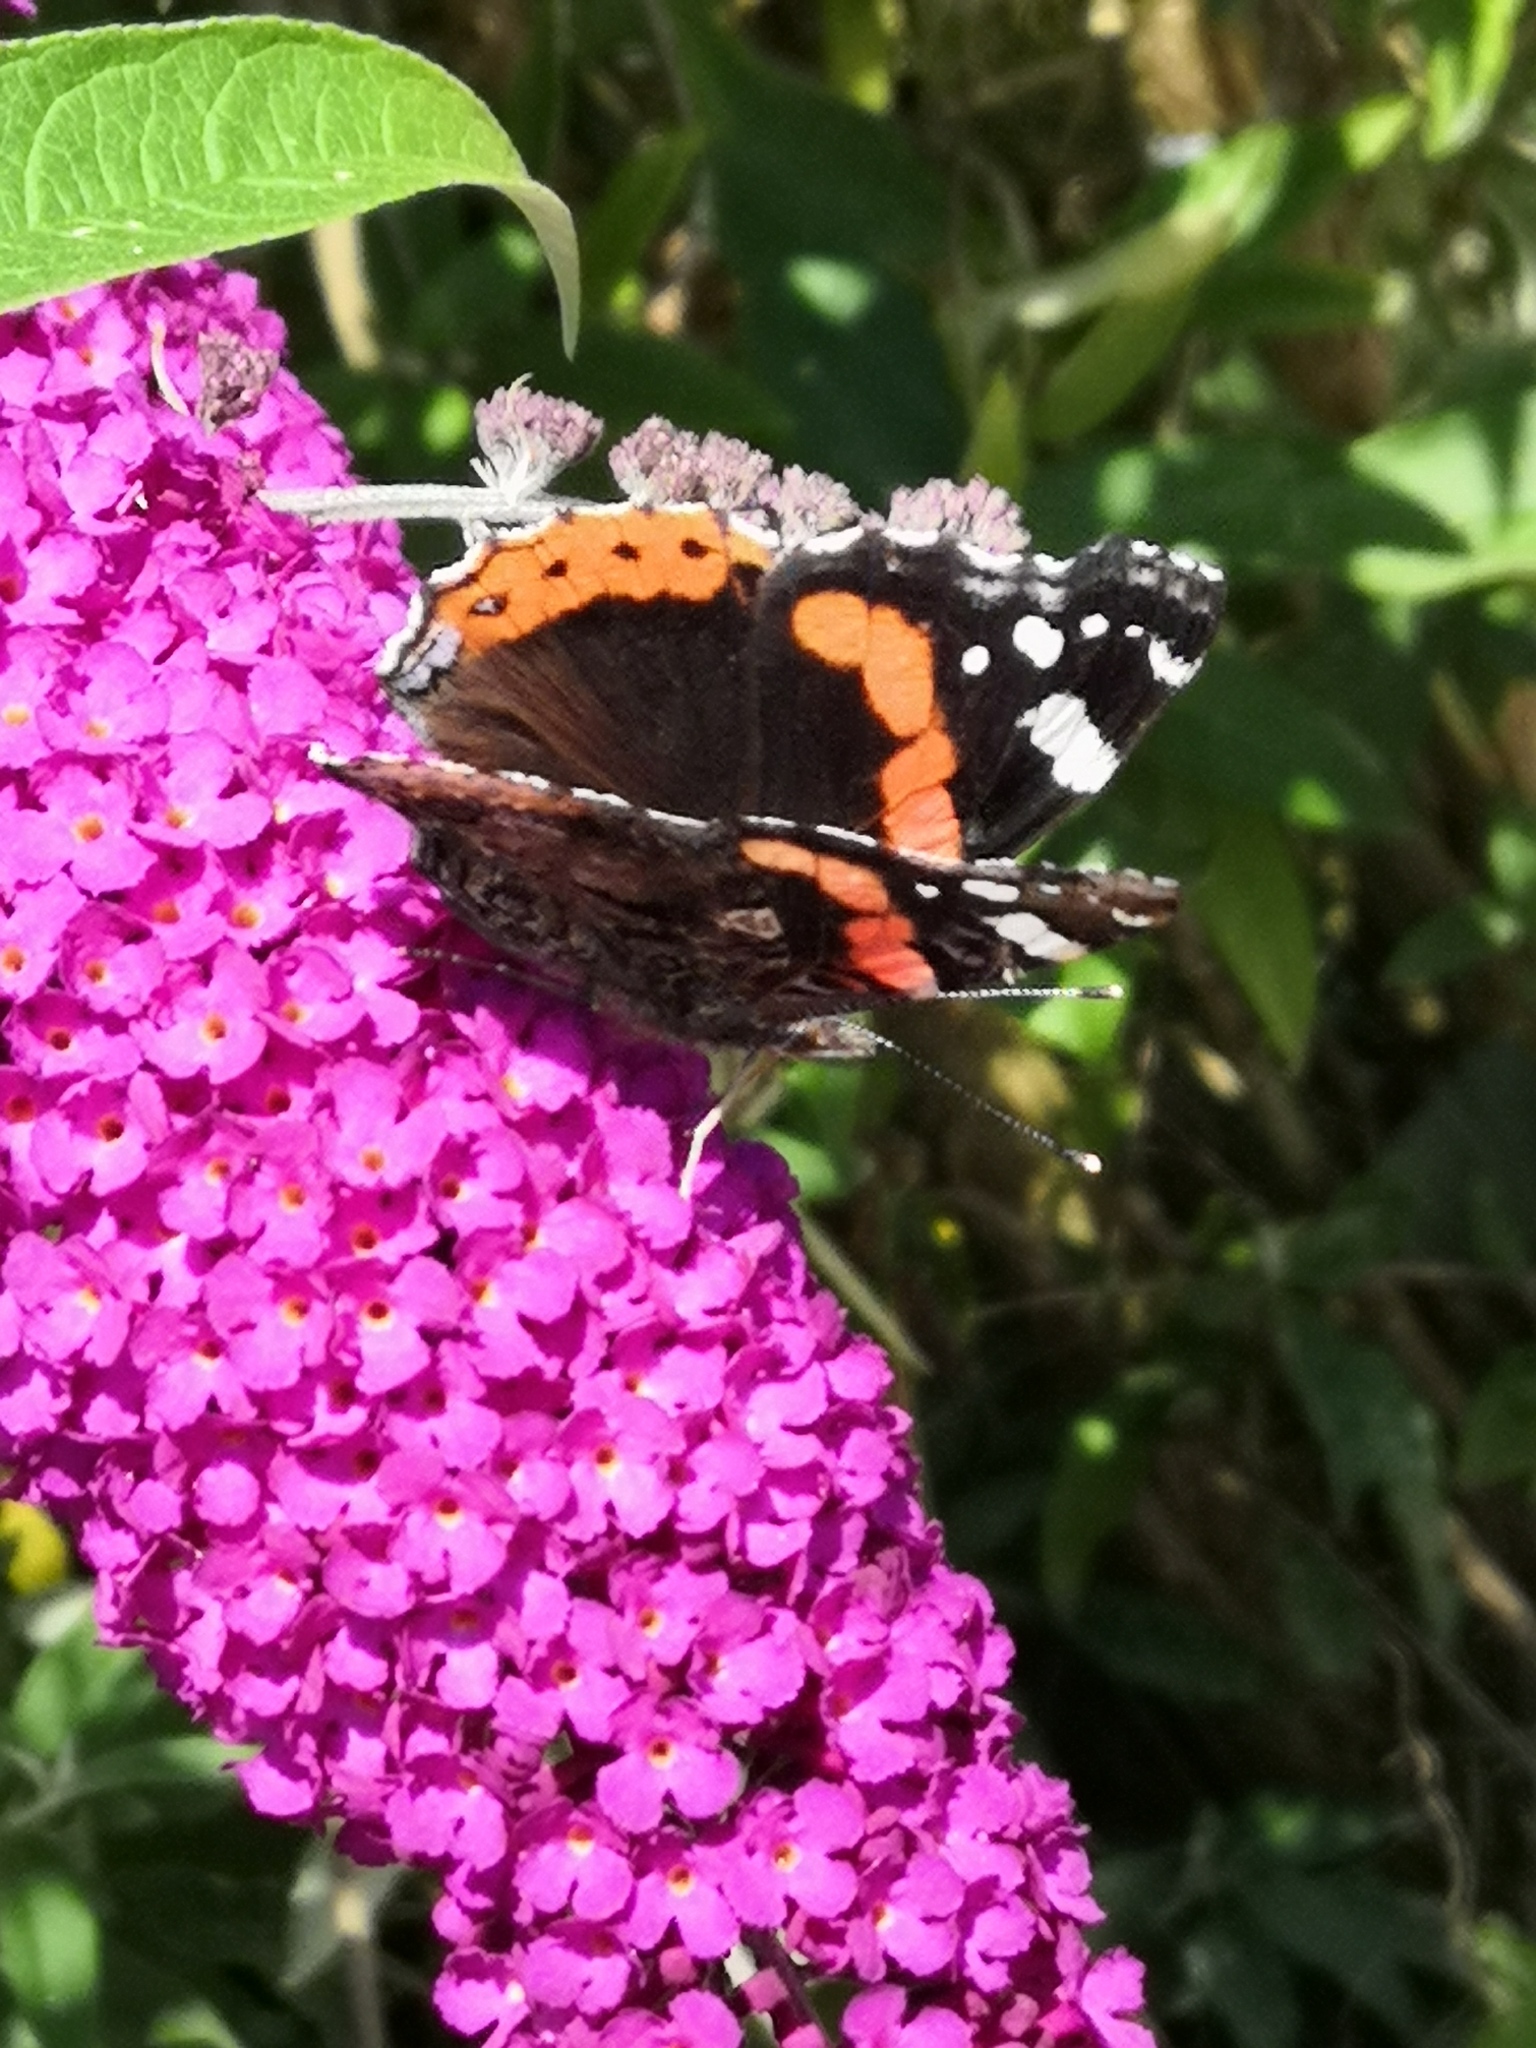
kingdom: Animalia
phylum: Arthropoda
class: Insecta
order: Lepidoptera
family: Nymphalidae
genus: Vanessa
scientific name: Vanessa atalanta
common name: Red admiral
